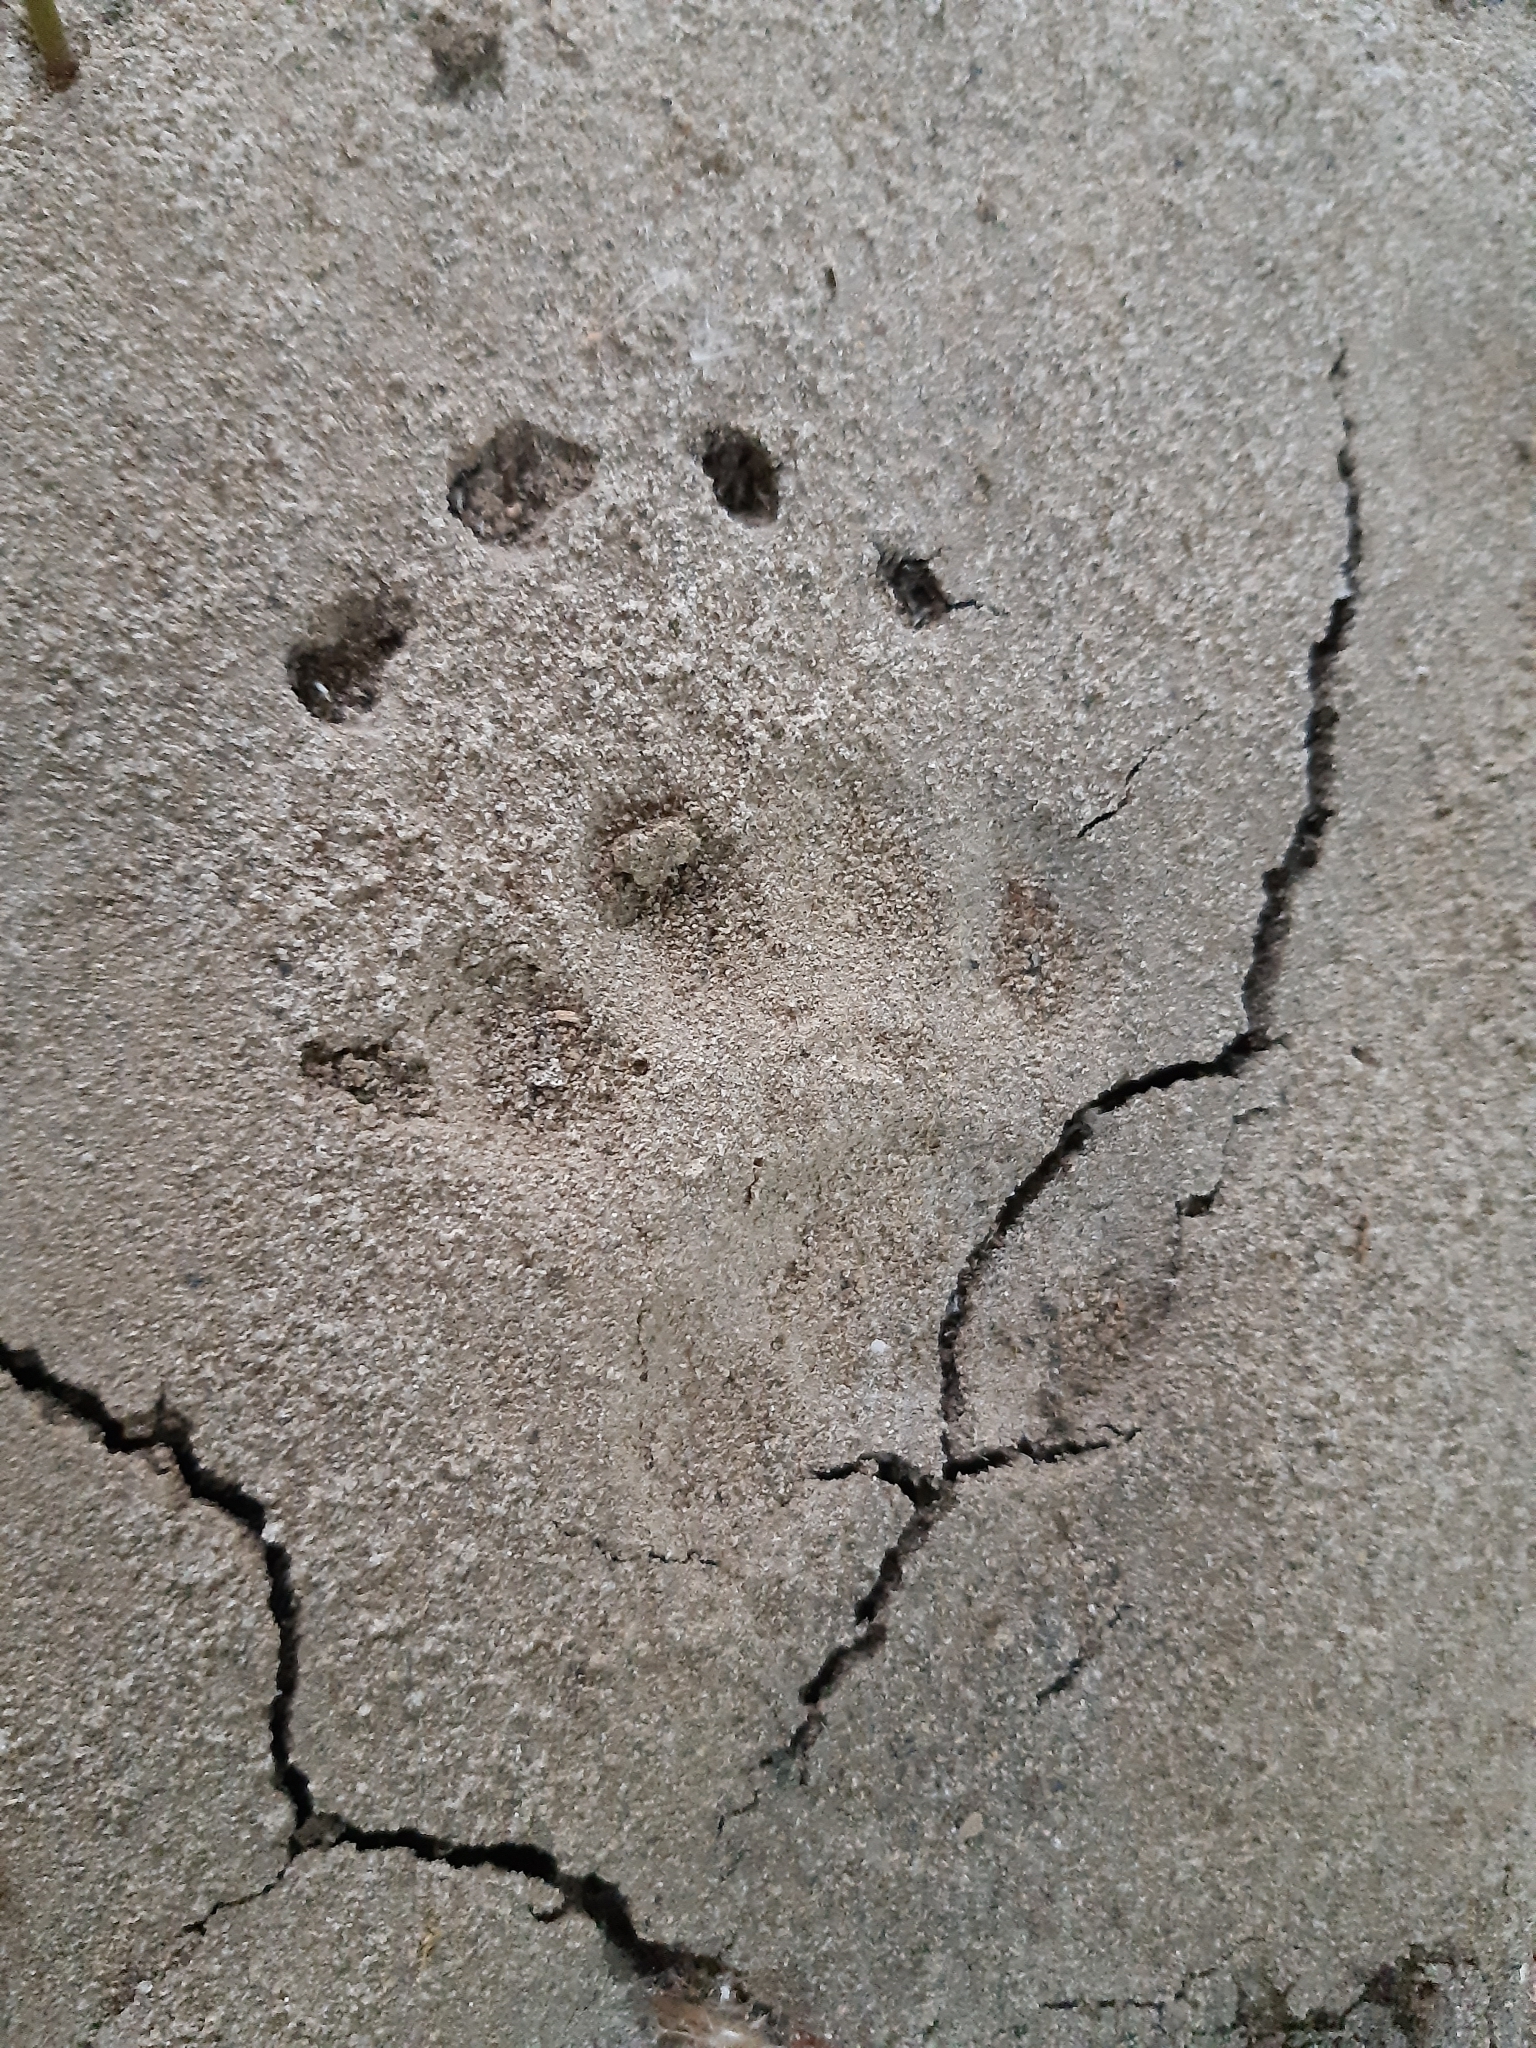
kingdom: Animalia
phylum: Chordata
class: Mammalia
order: Carnivora
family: Mustelidae
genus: Meles
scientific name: Meles meles
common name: Eurasian badger
